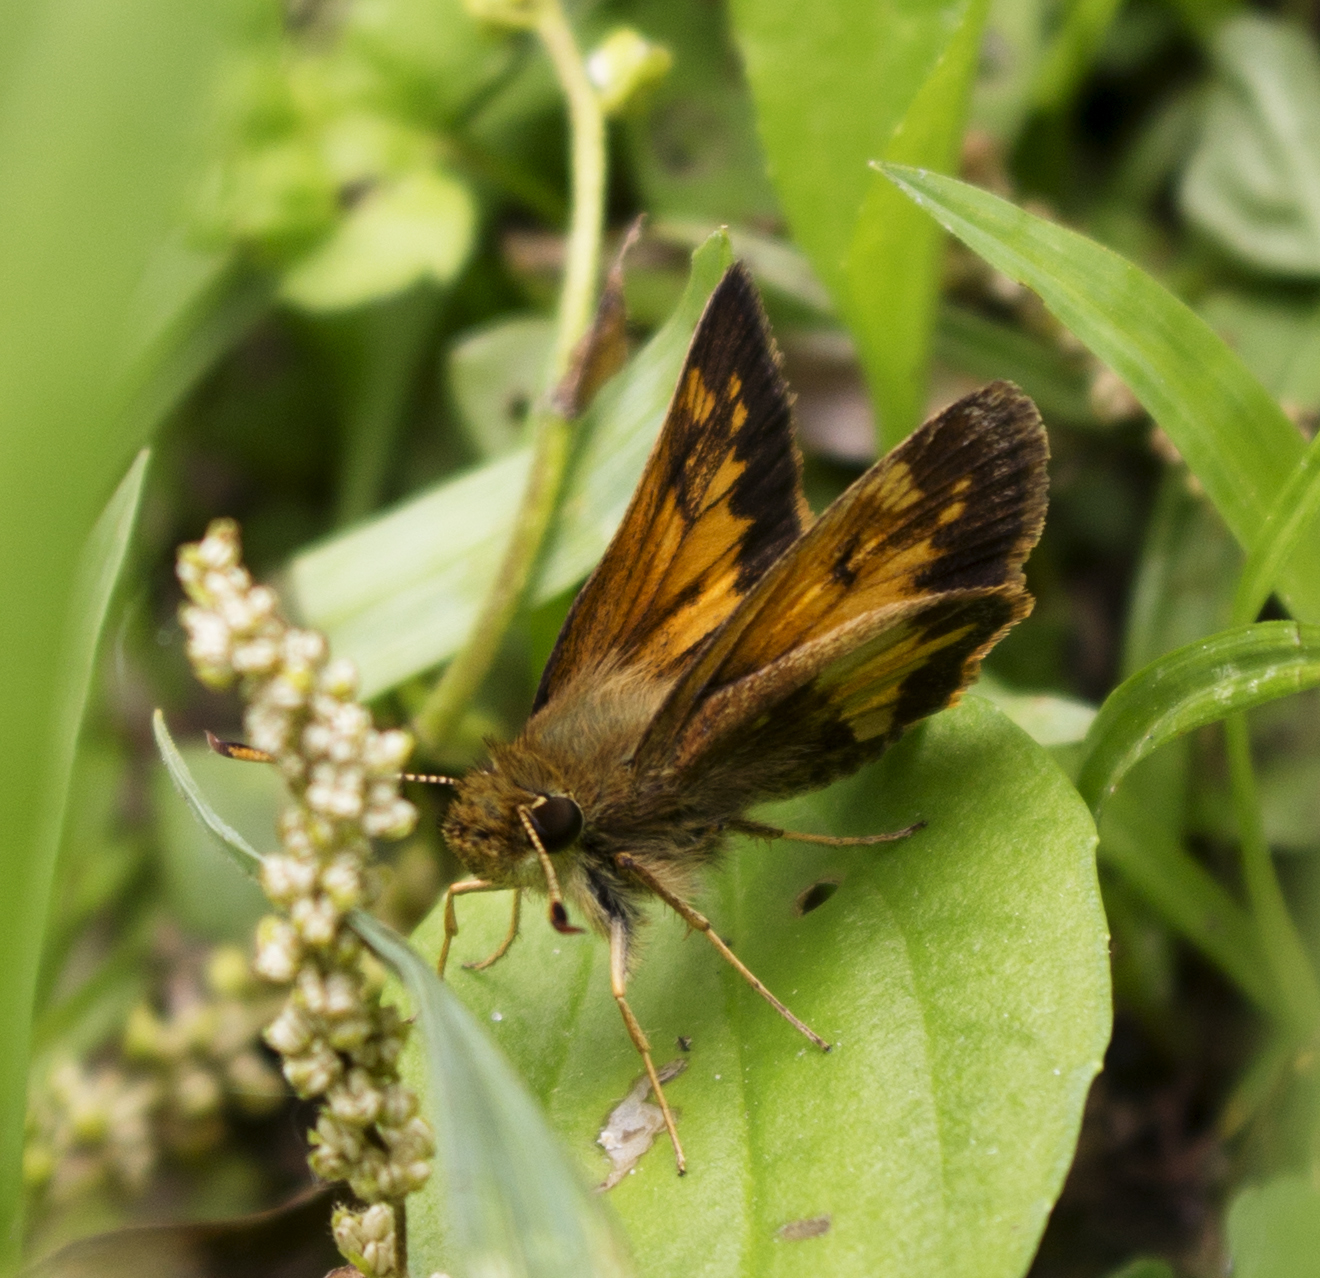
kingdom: Animalia
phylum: Arthropoda
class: Insecta
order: Lepidoptera
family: Hesperiidae
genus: Lon
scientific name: Lon hobomok
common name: Hobomok skipper
